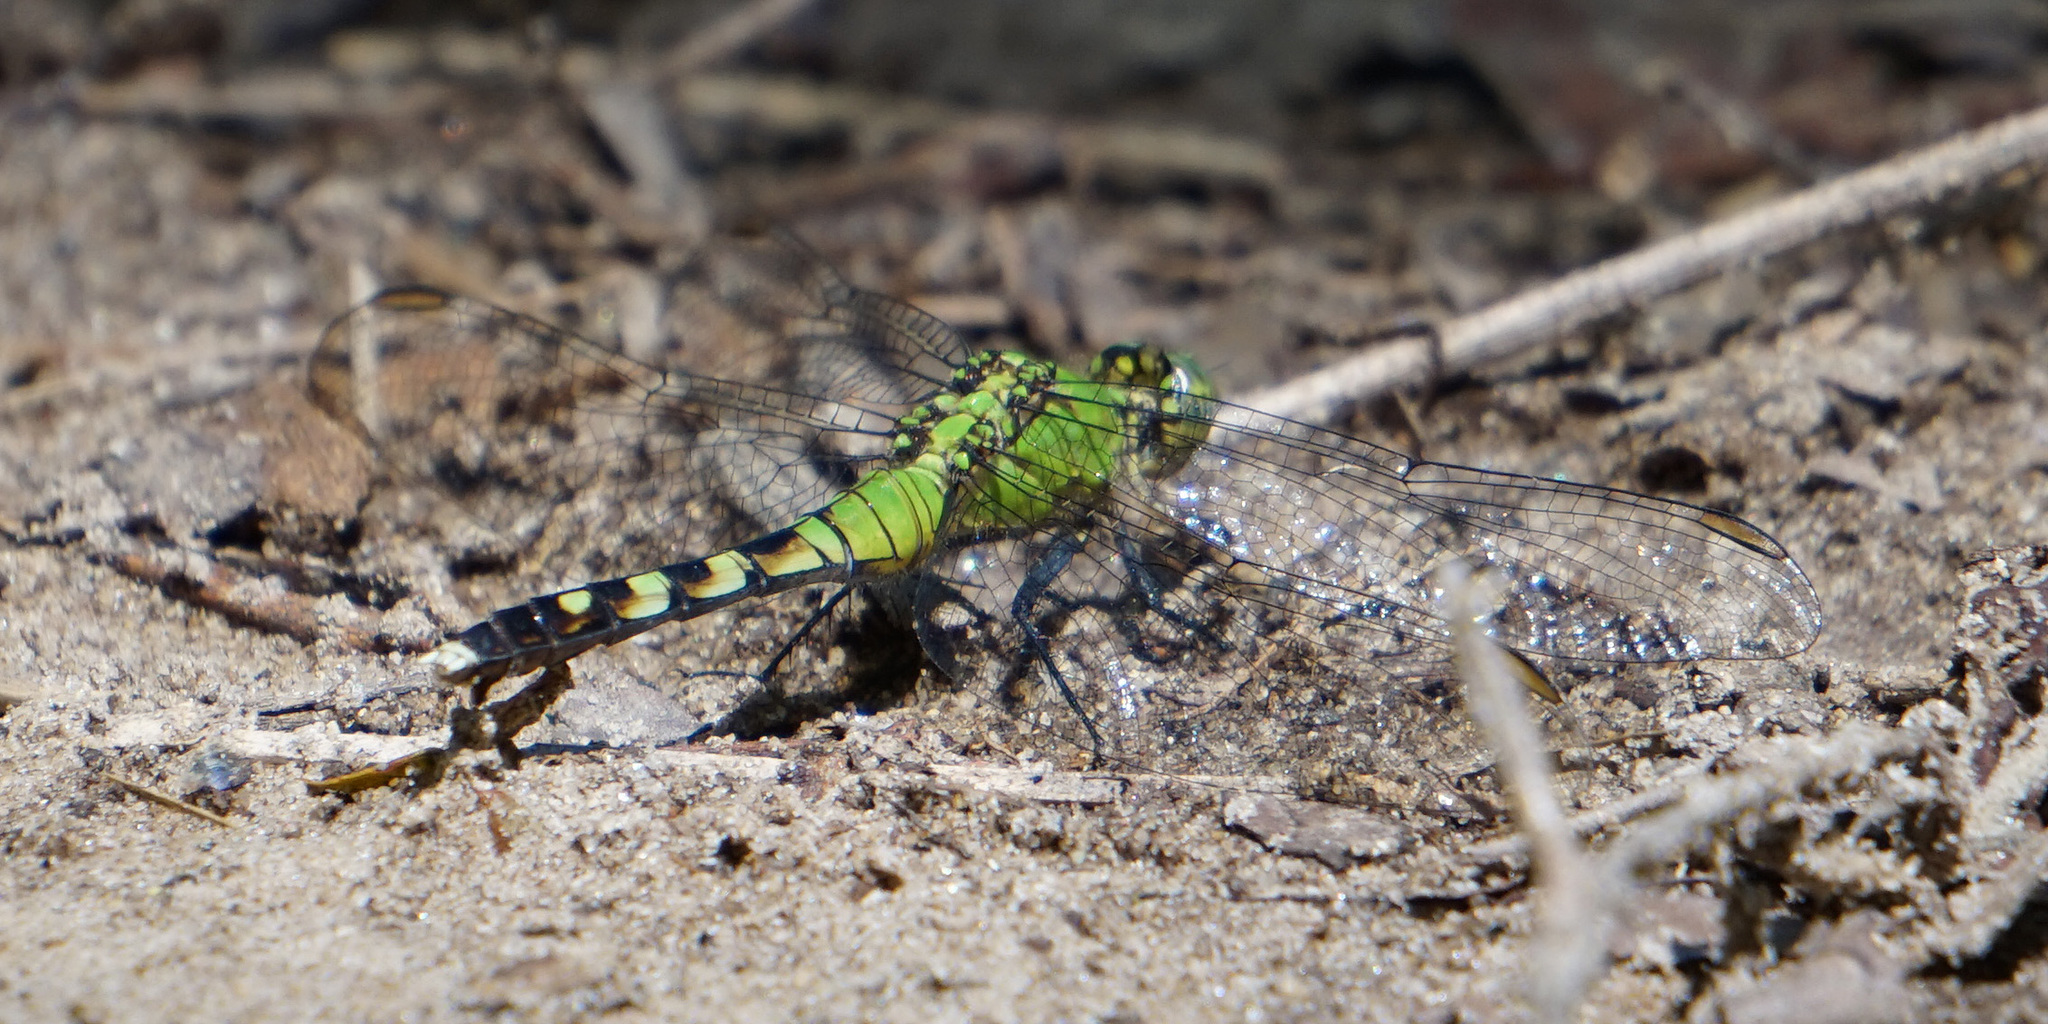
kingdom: Animalia
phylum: Arthropoda
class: Insecta
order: Odonata
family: Libellulidae
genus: Erythemis
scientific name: Erythemis simplicicollis
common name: Eastern pondhawk
